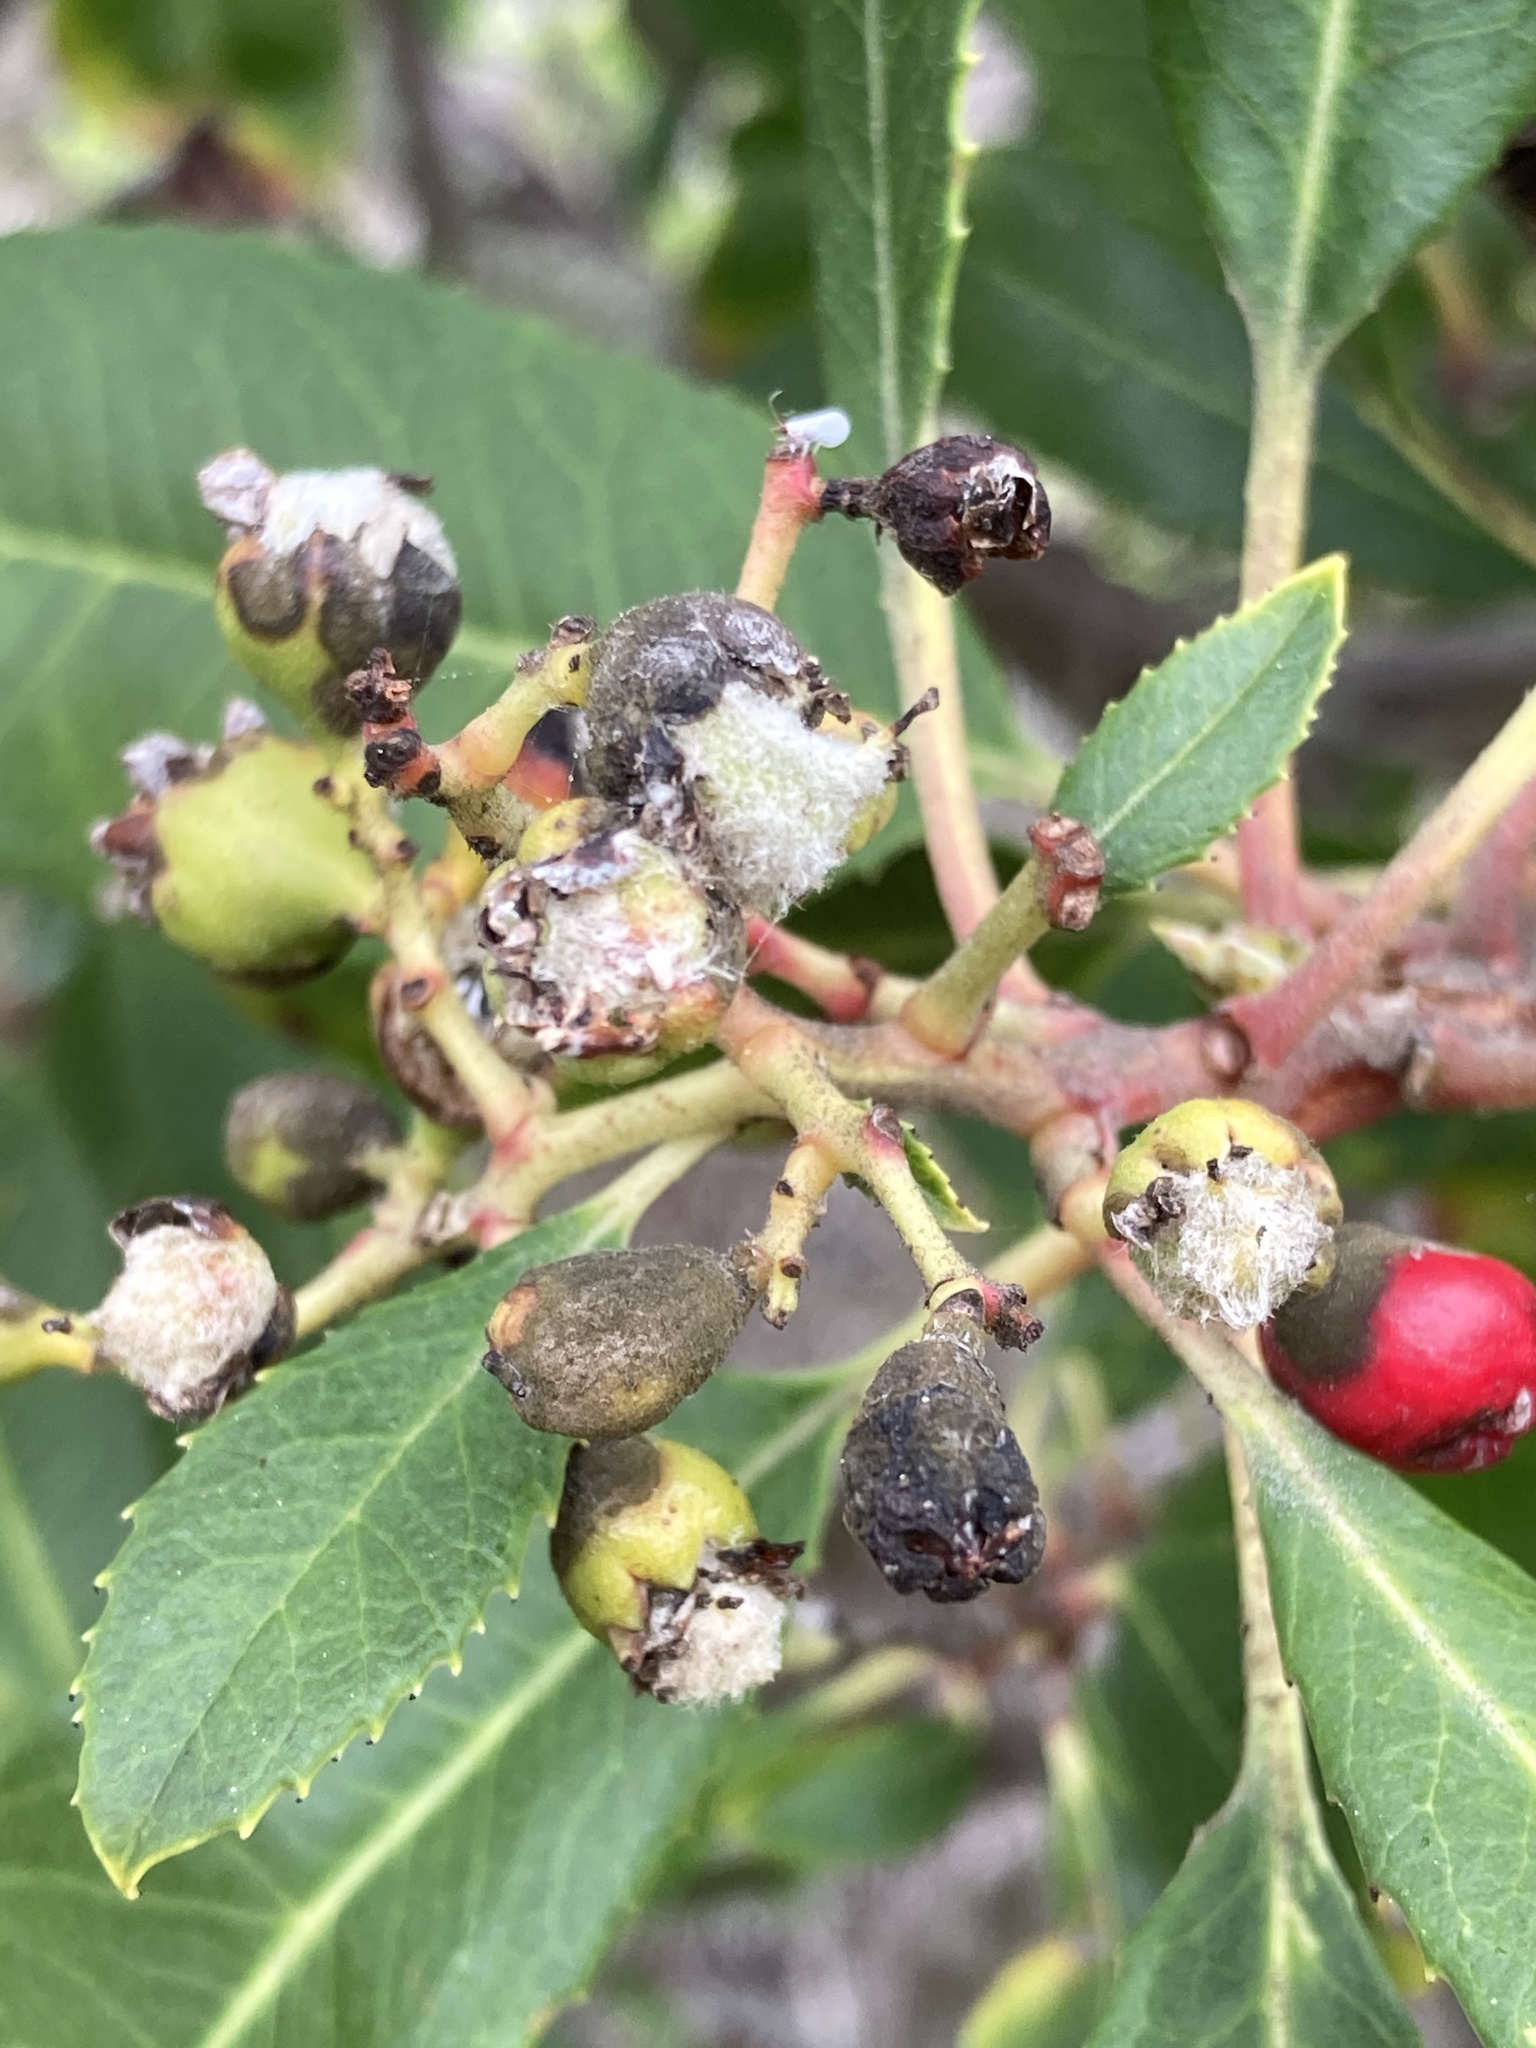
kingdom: Animalia
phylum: Arthropoda
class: Insecta
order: Diptera
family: Cecidomyiidae
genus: Asphondylia
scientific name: Asphondylia photiniae
